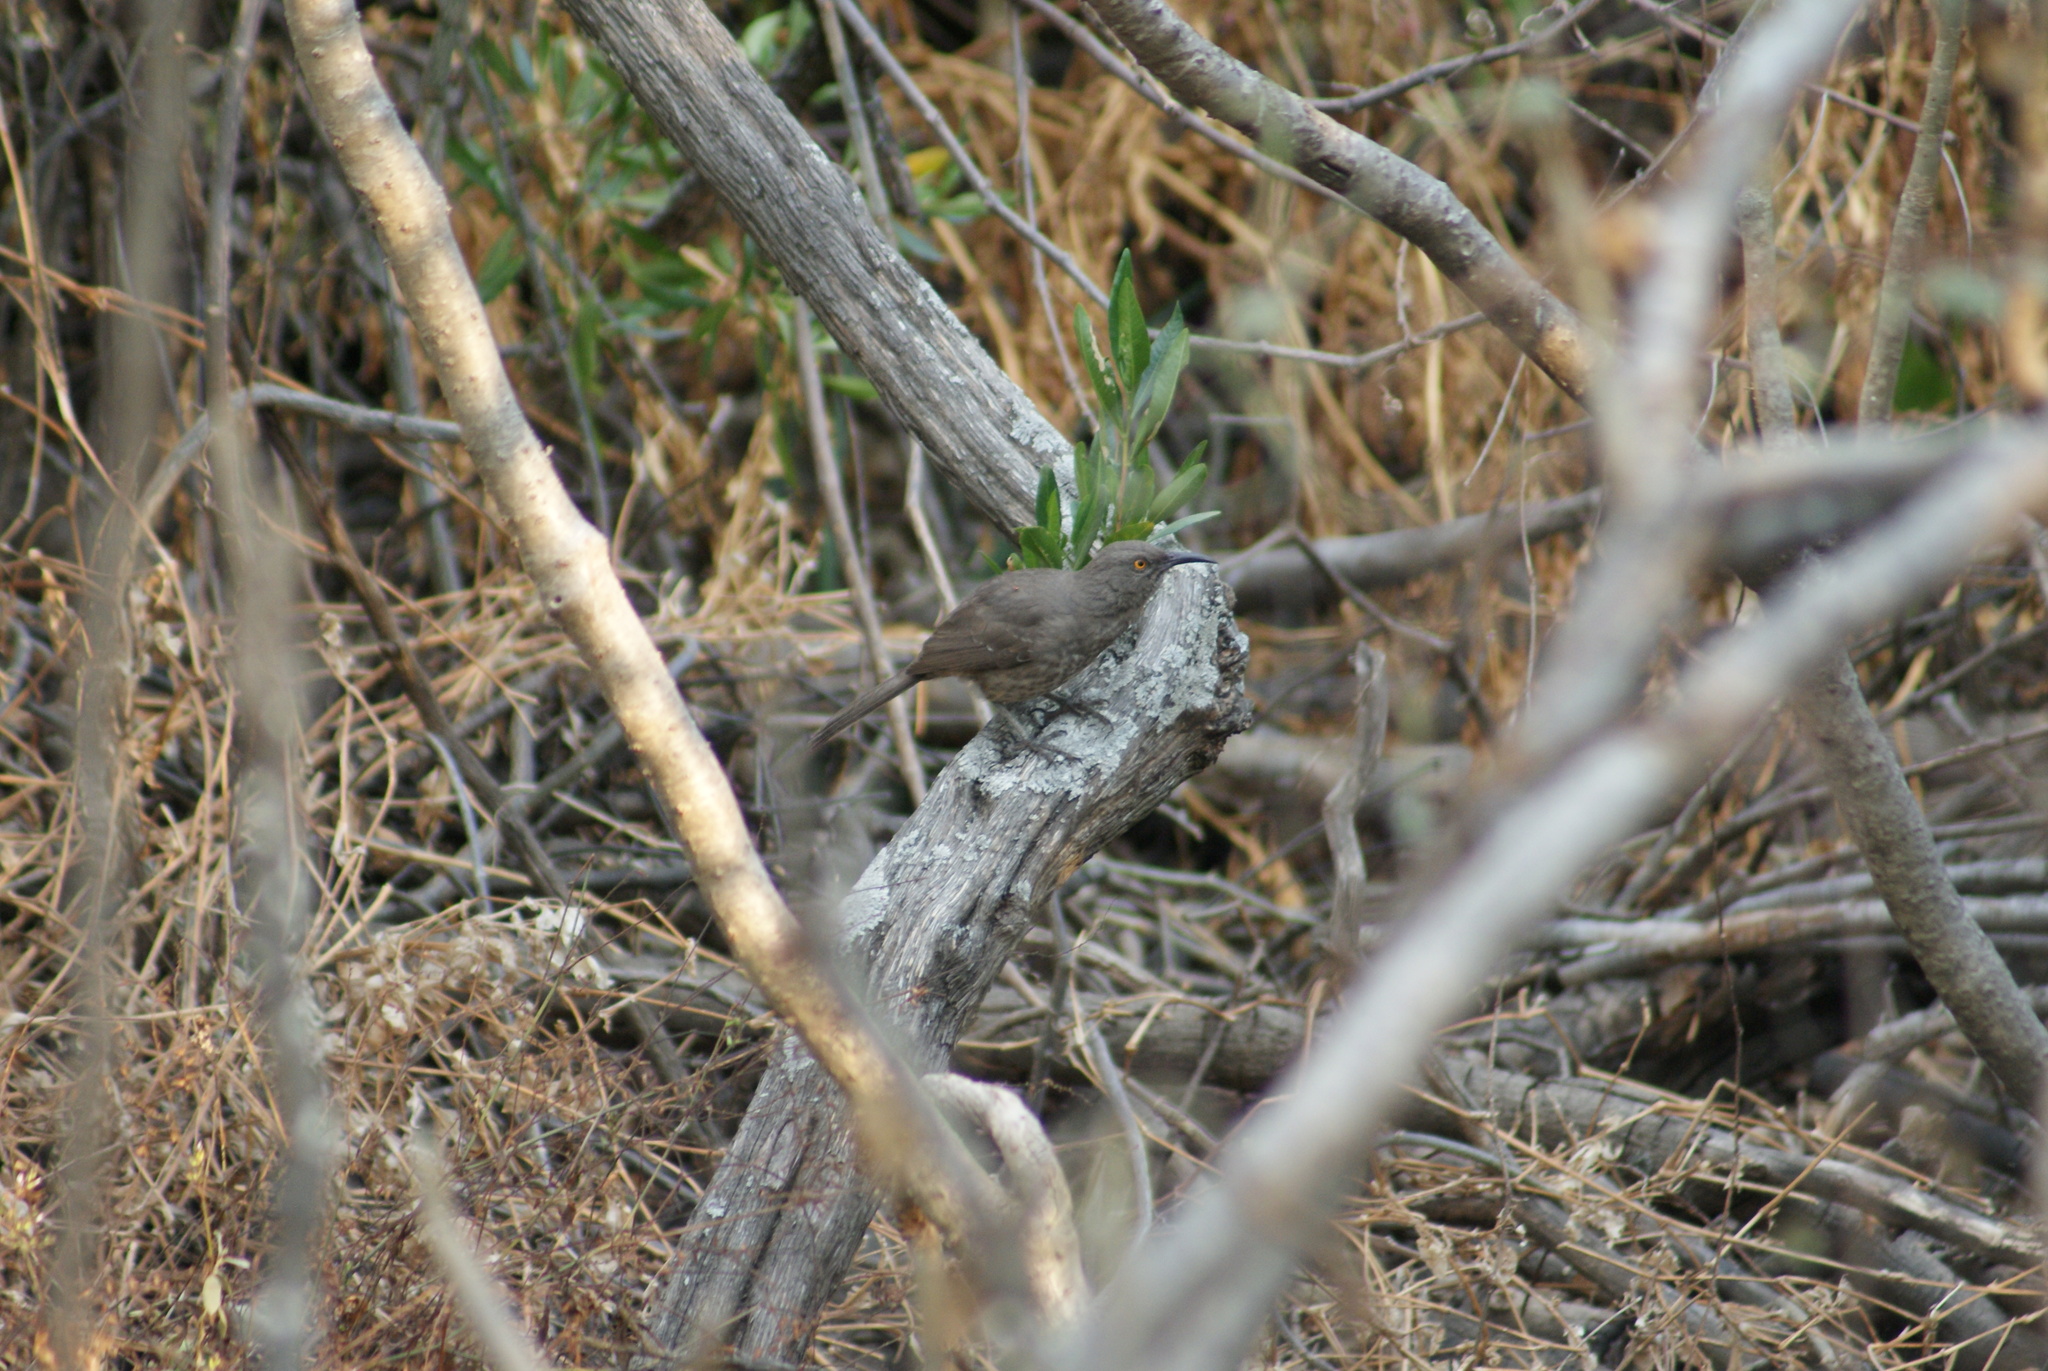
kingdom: Animalia
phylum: Chordata
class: Aves
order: Passeriformes
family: Mimidae
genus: Toxostoma
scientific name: Toxostoma curvirostre
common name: Curve-billed thrasher
